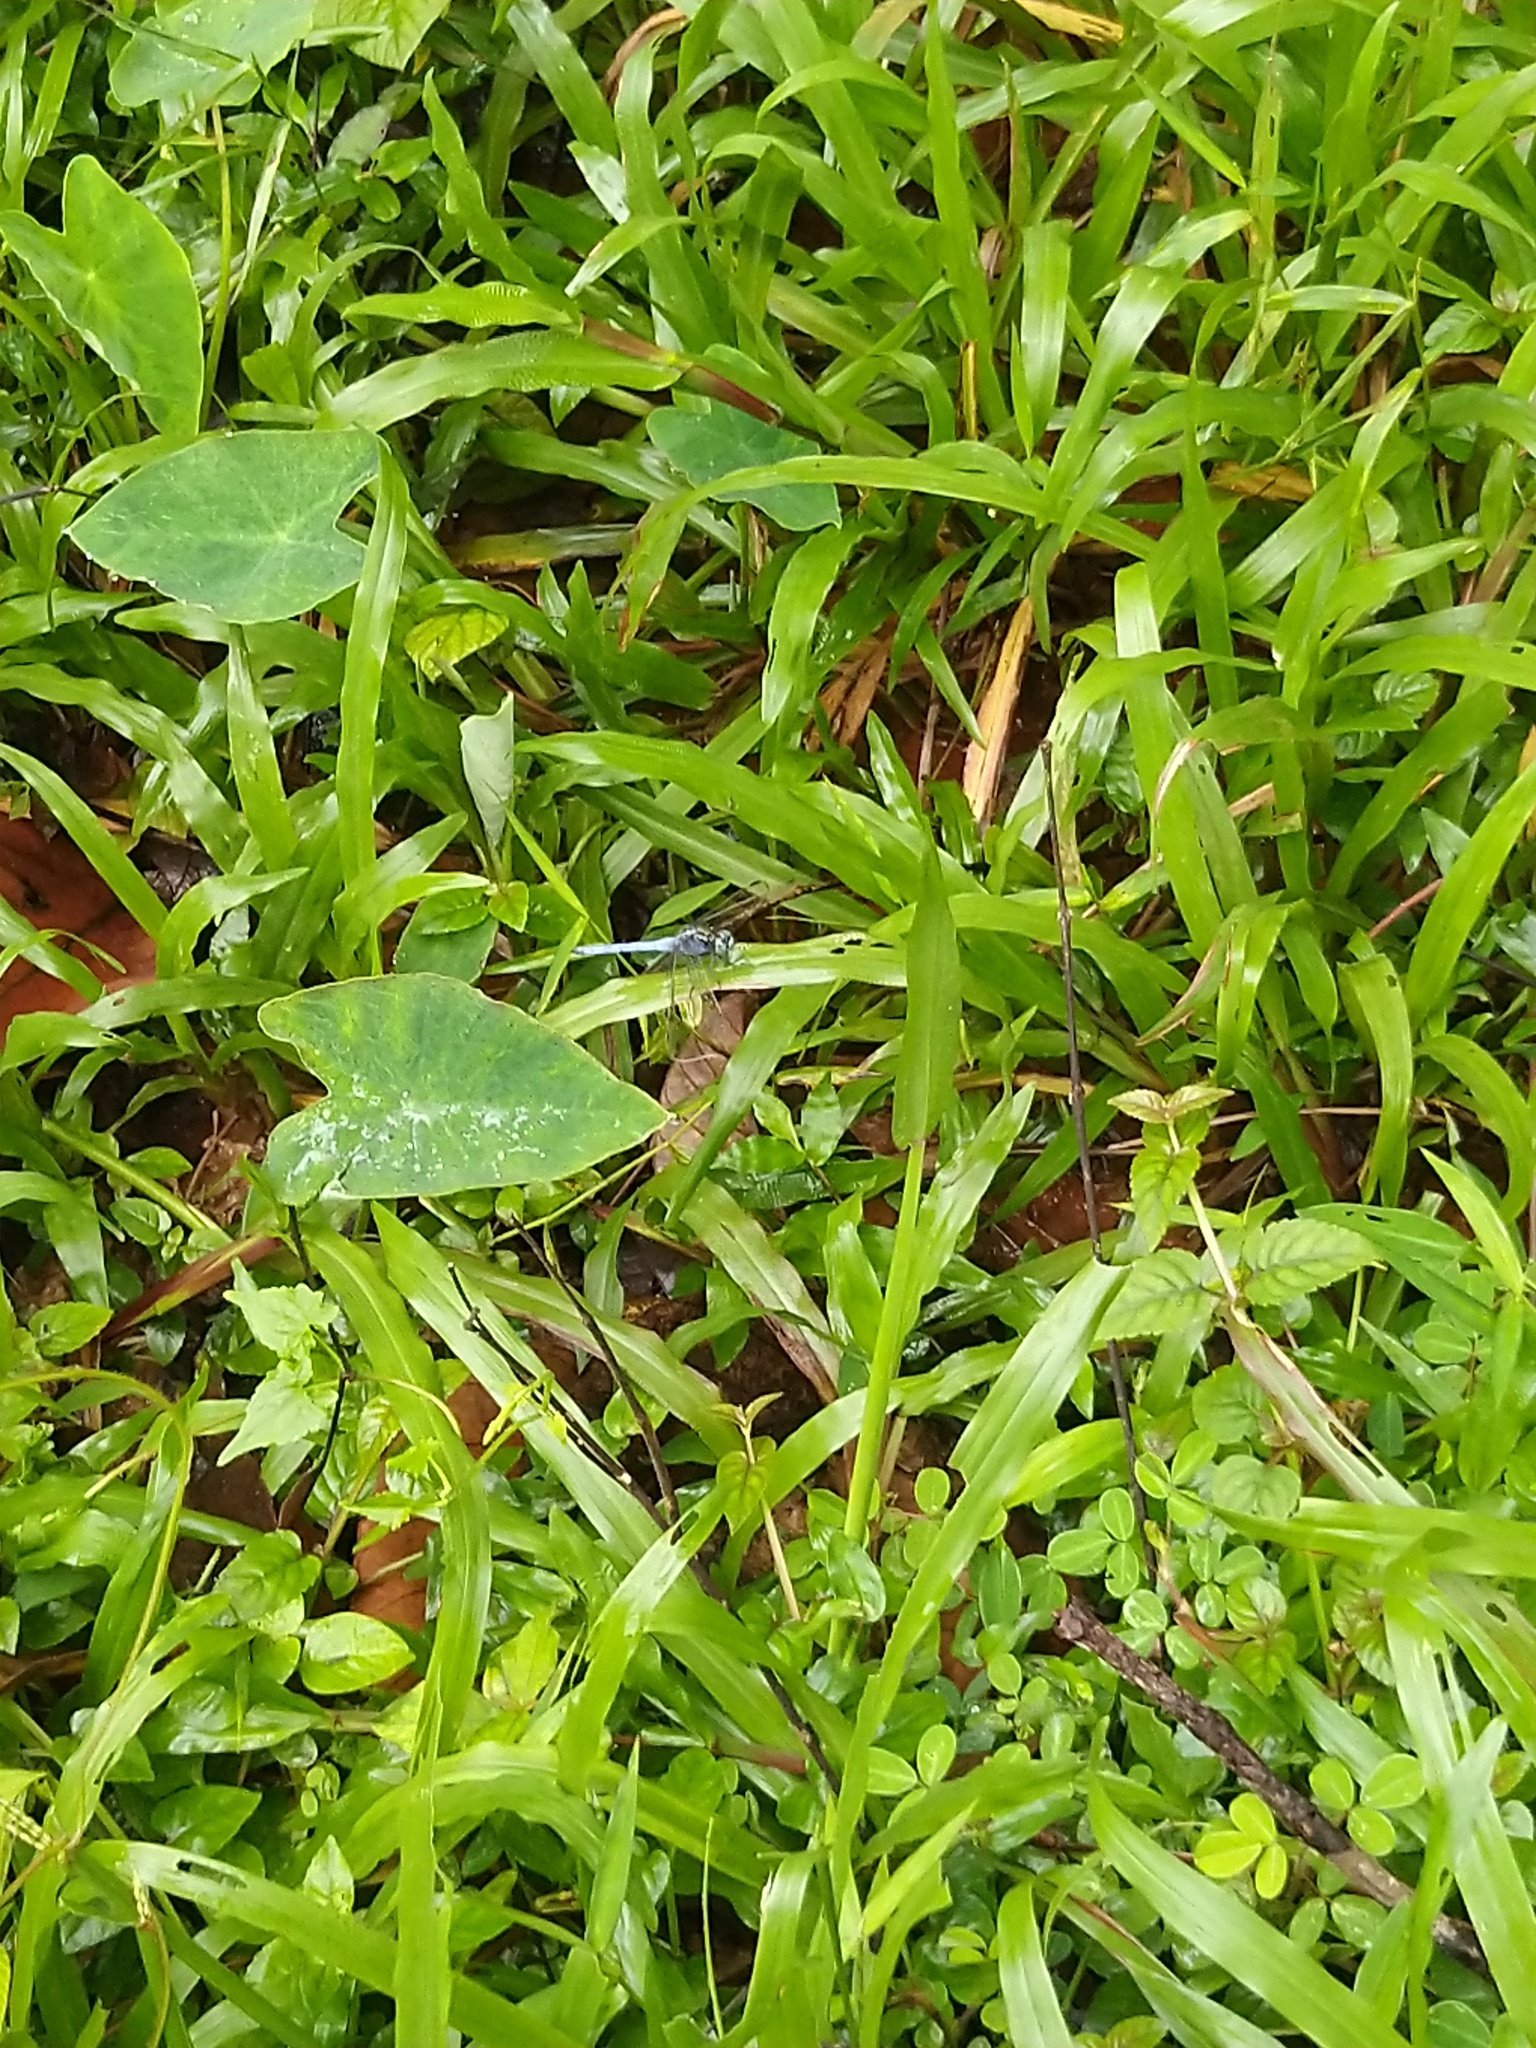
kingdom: Animalia
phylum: Arthropoda
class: Insecta
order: Odonata
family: Libellulidae
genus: Orthetrum
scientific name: Orthetrum luzonicum
